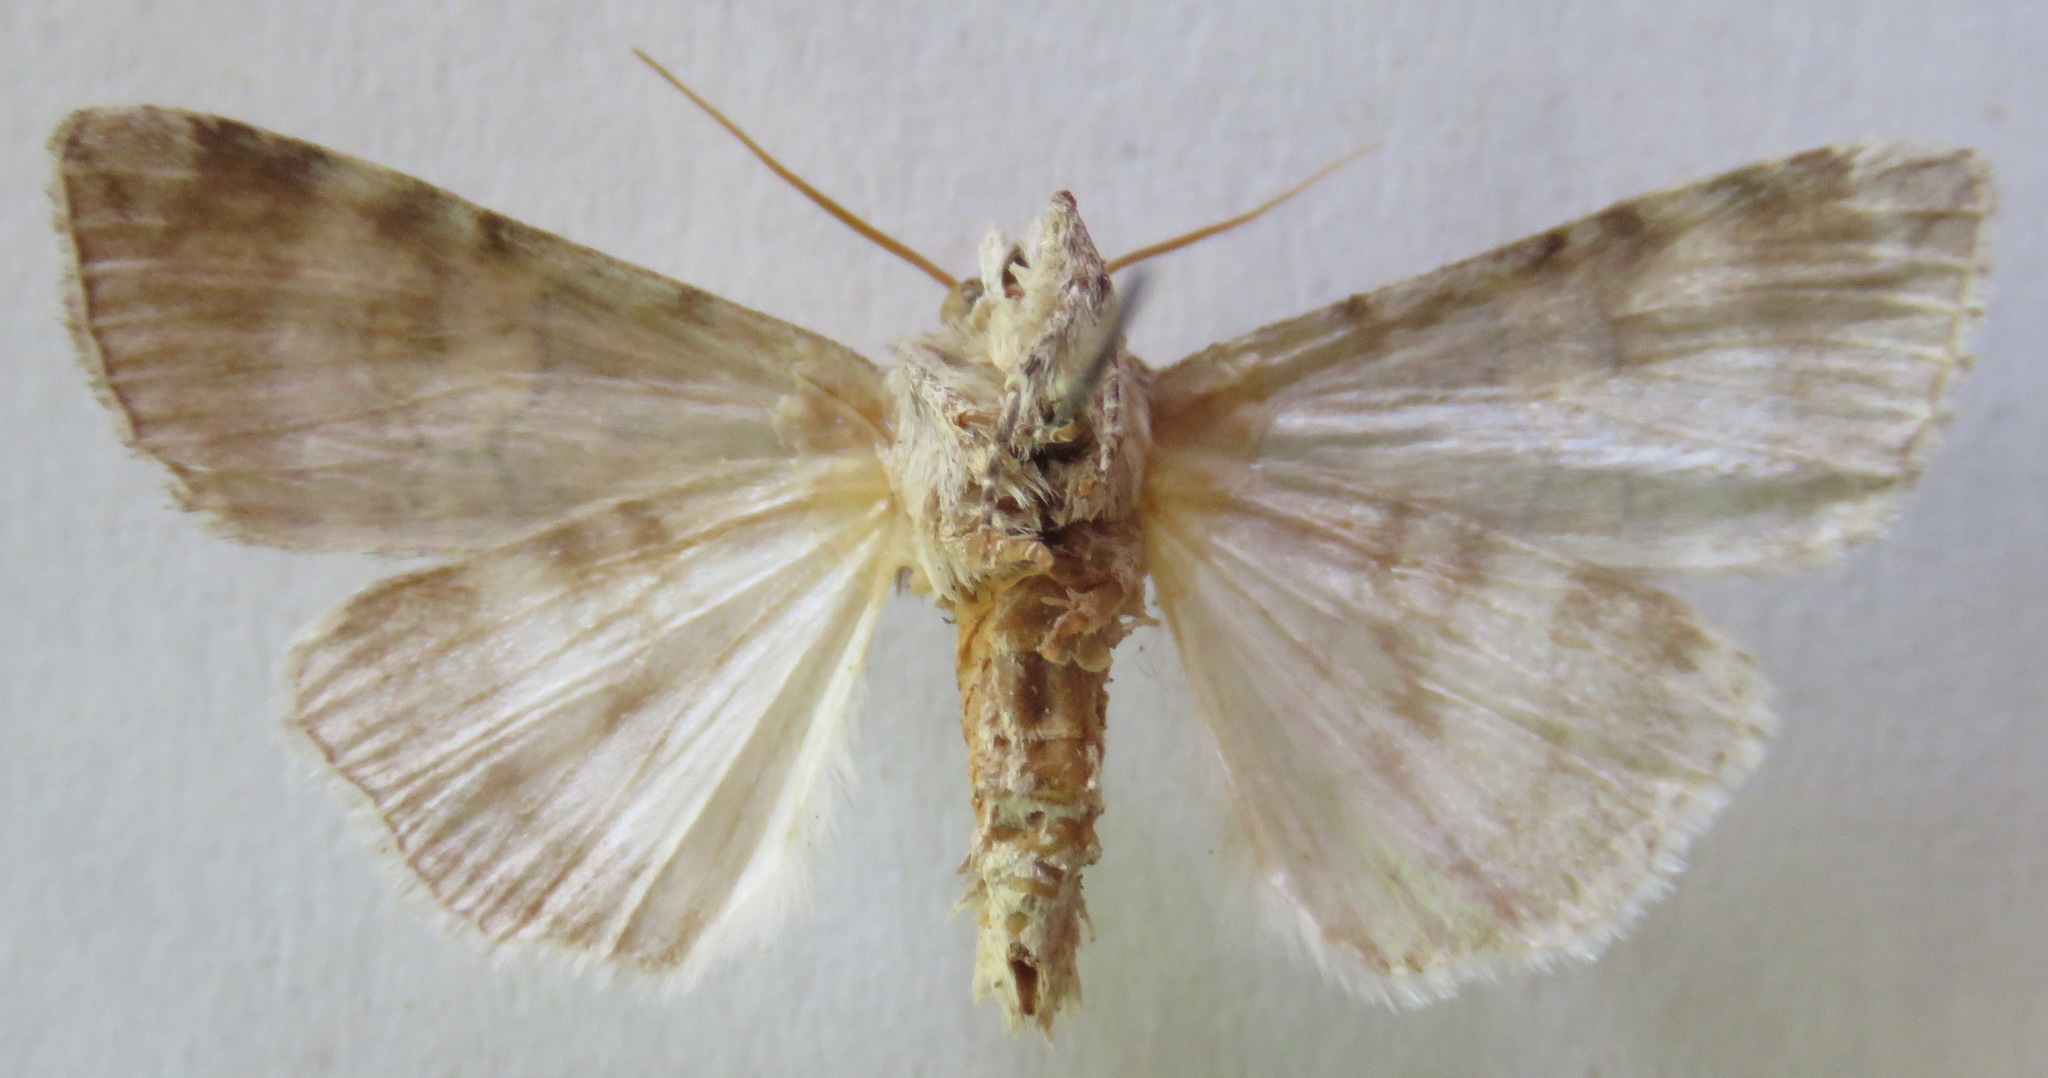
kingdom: Animalia
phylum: Arthropoda
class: Insecta
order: Lepidoptera
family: Drepanidae
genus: Tethea
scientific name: Tethea ocularis
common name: Figure of eighty
